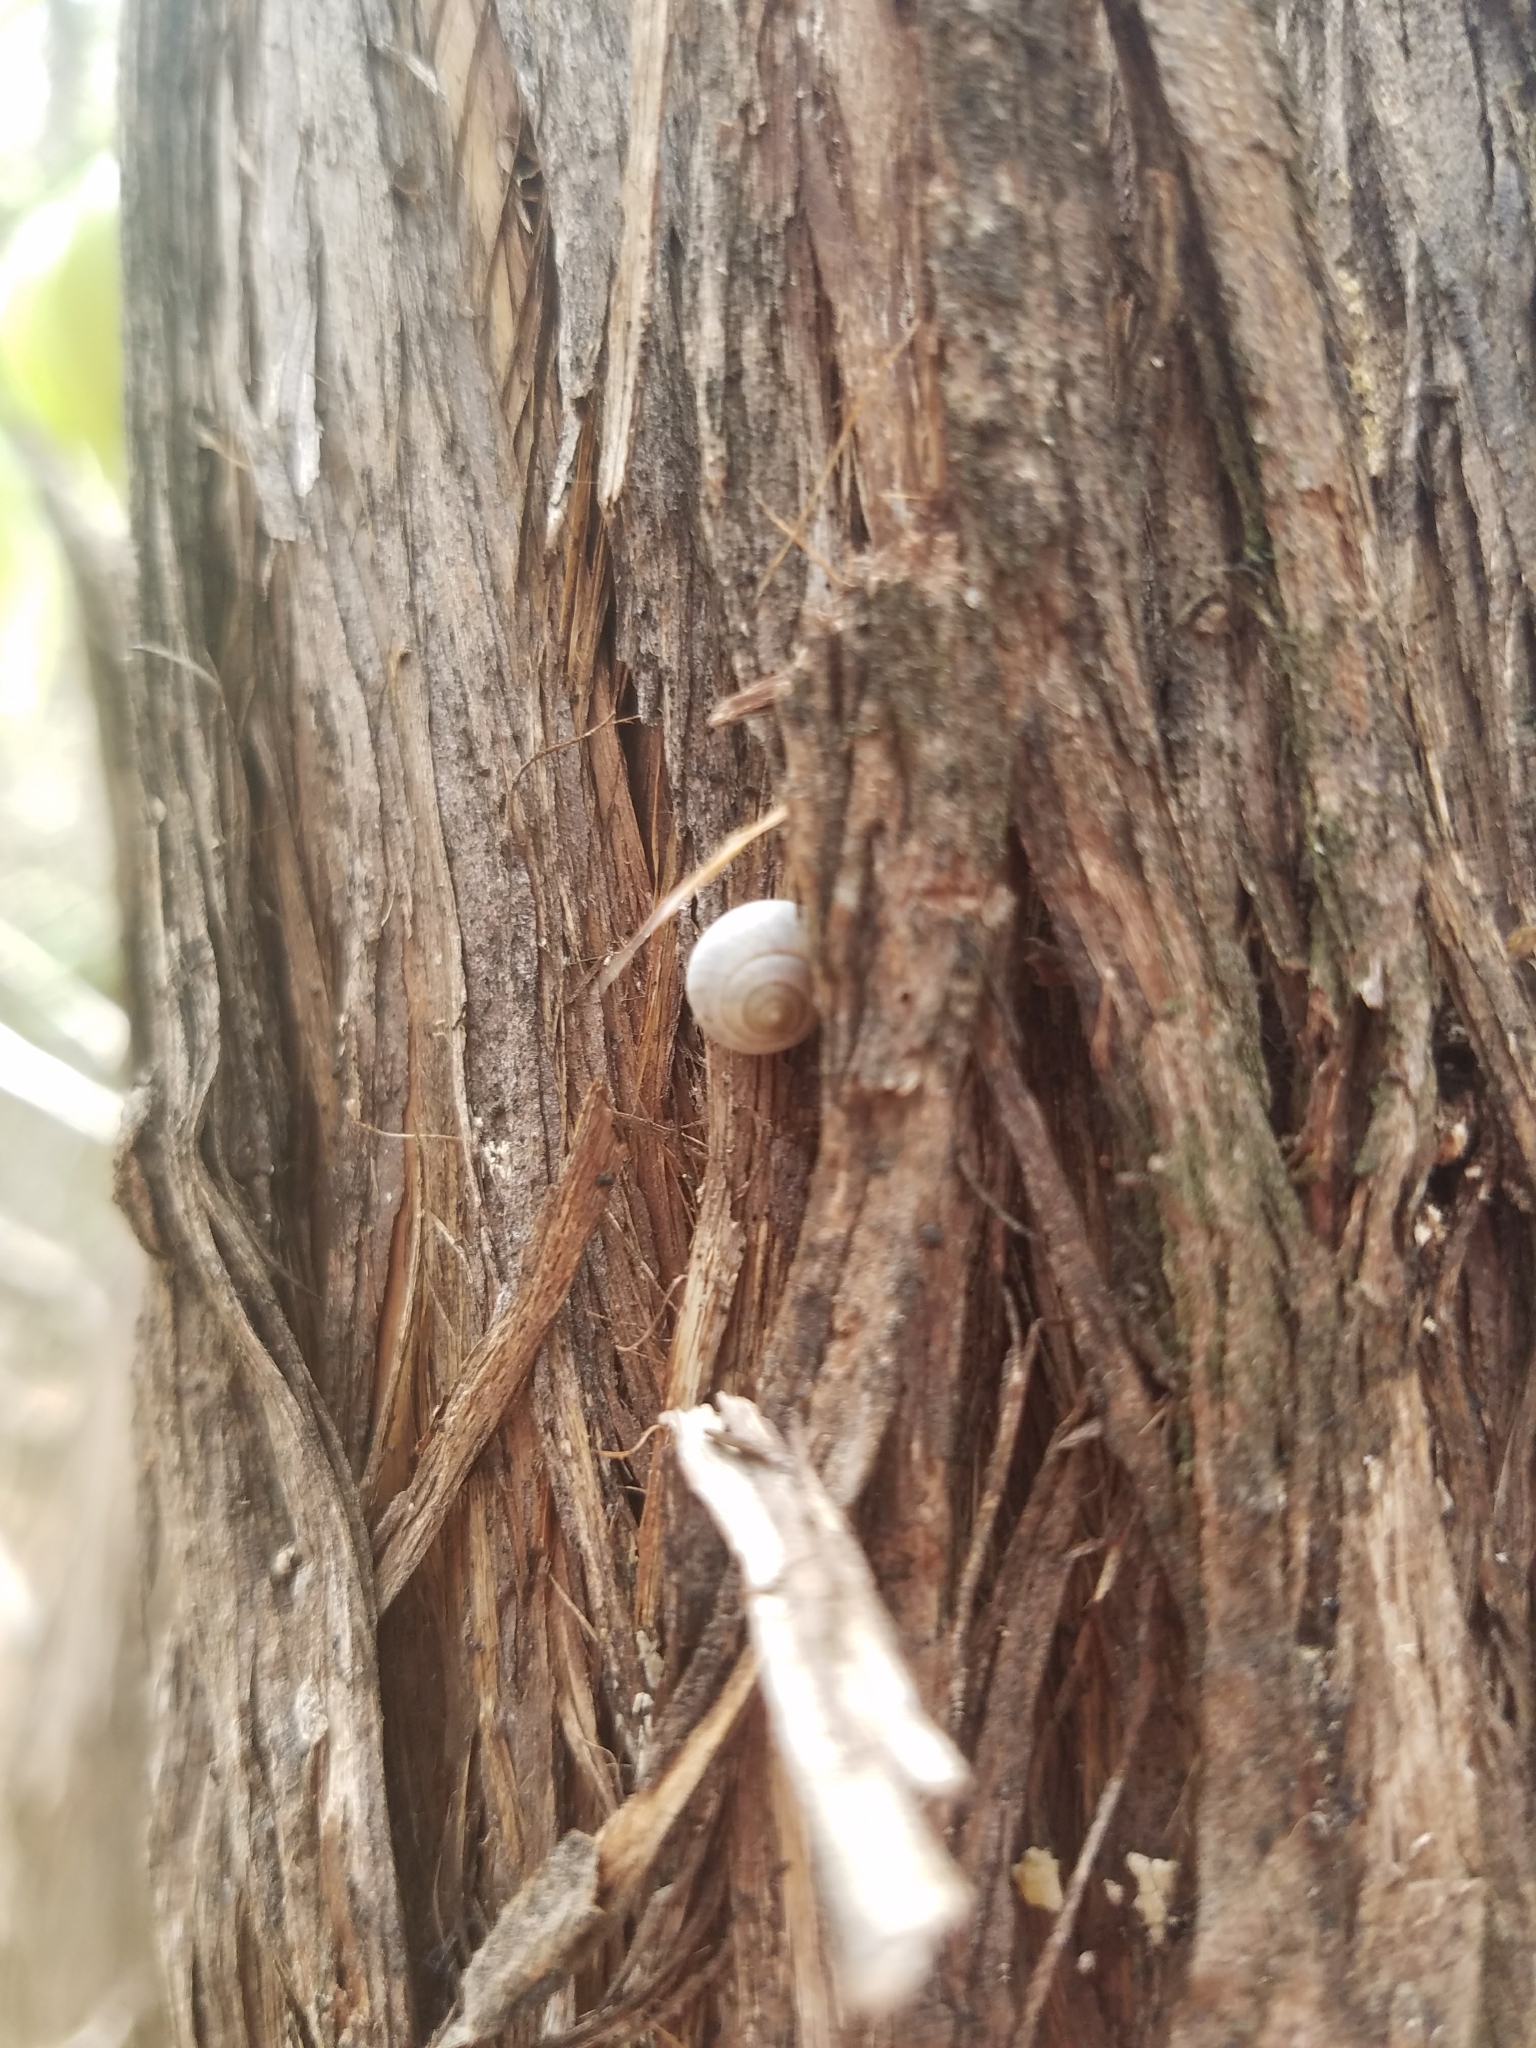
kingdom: Animalia
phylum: Mollusca
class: Gastropoda
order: Cycloneritida
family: Helicinidae
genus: Helicina
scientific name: Helicina orbiculata
